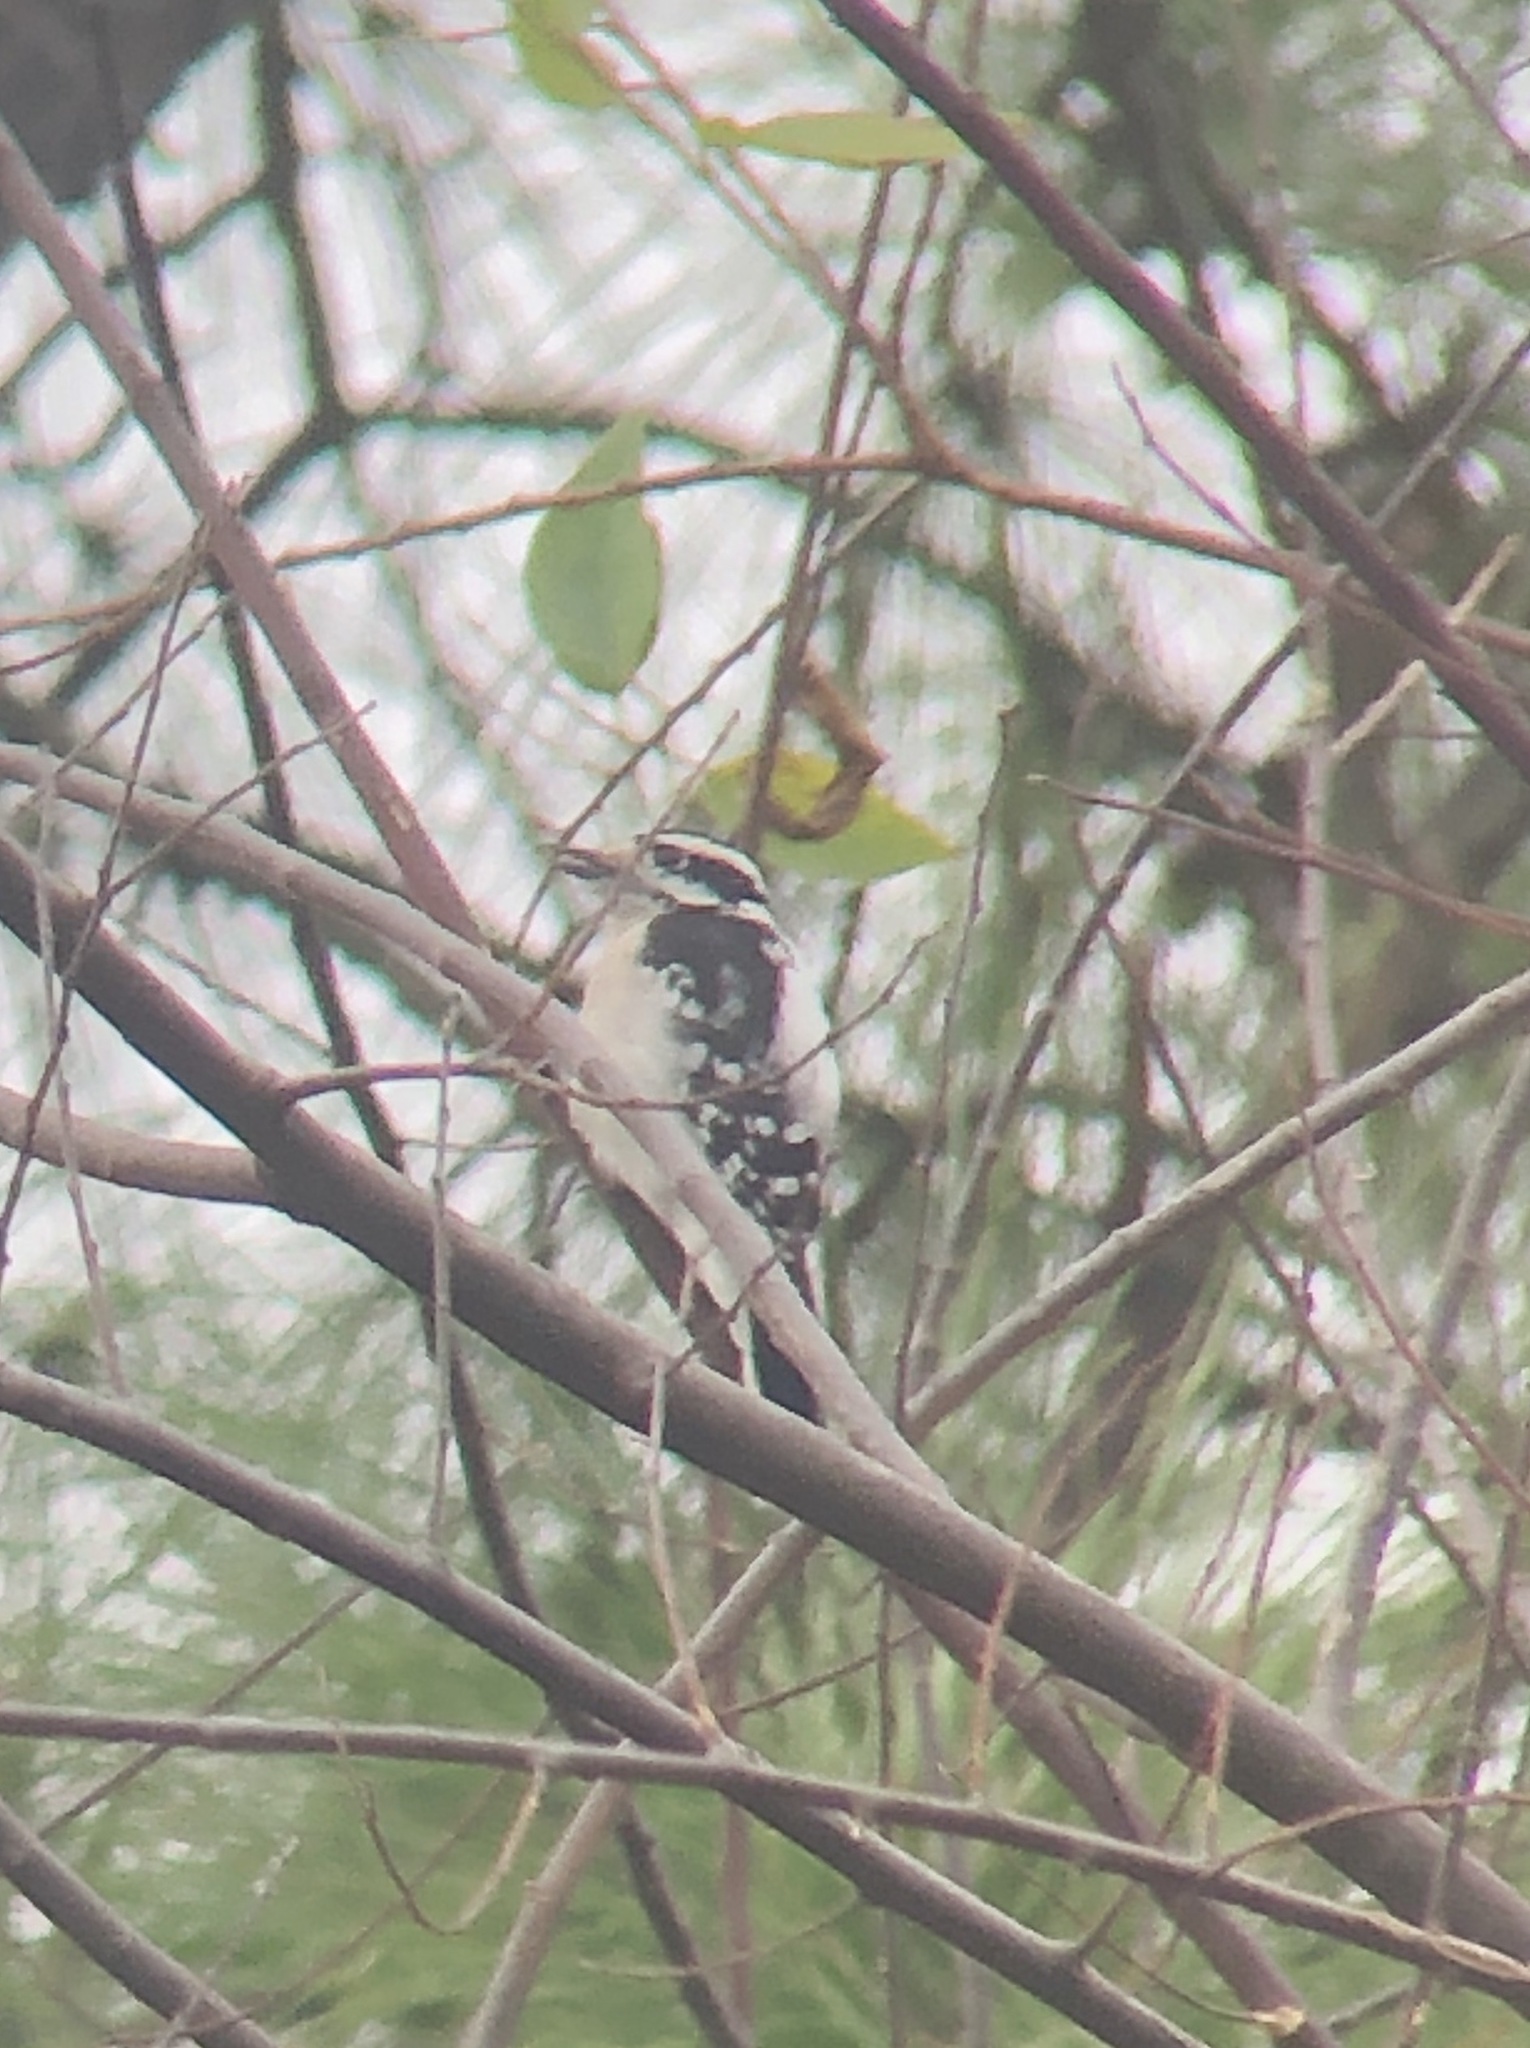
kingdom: Animalia
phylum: Chordata
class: Aves
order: Piciformes
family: Picidae
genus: Dryobates
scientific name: Dryobates pubescens
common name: Downy woodpecker
